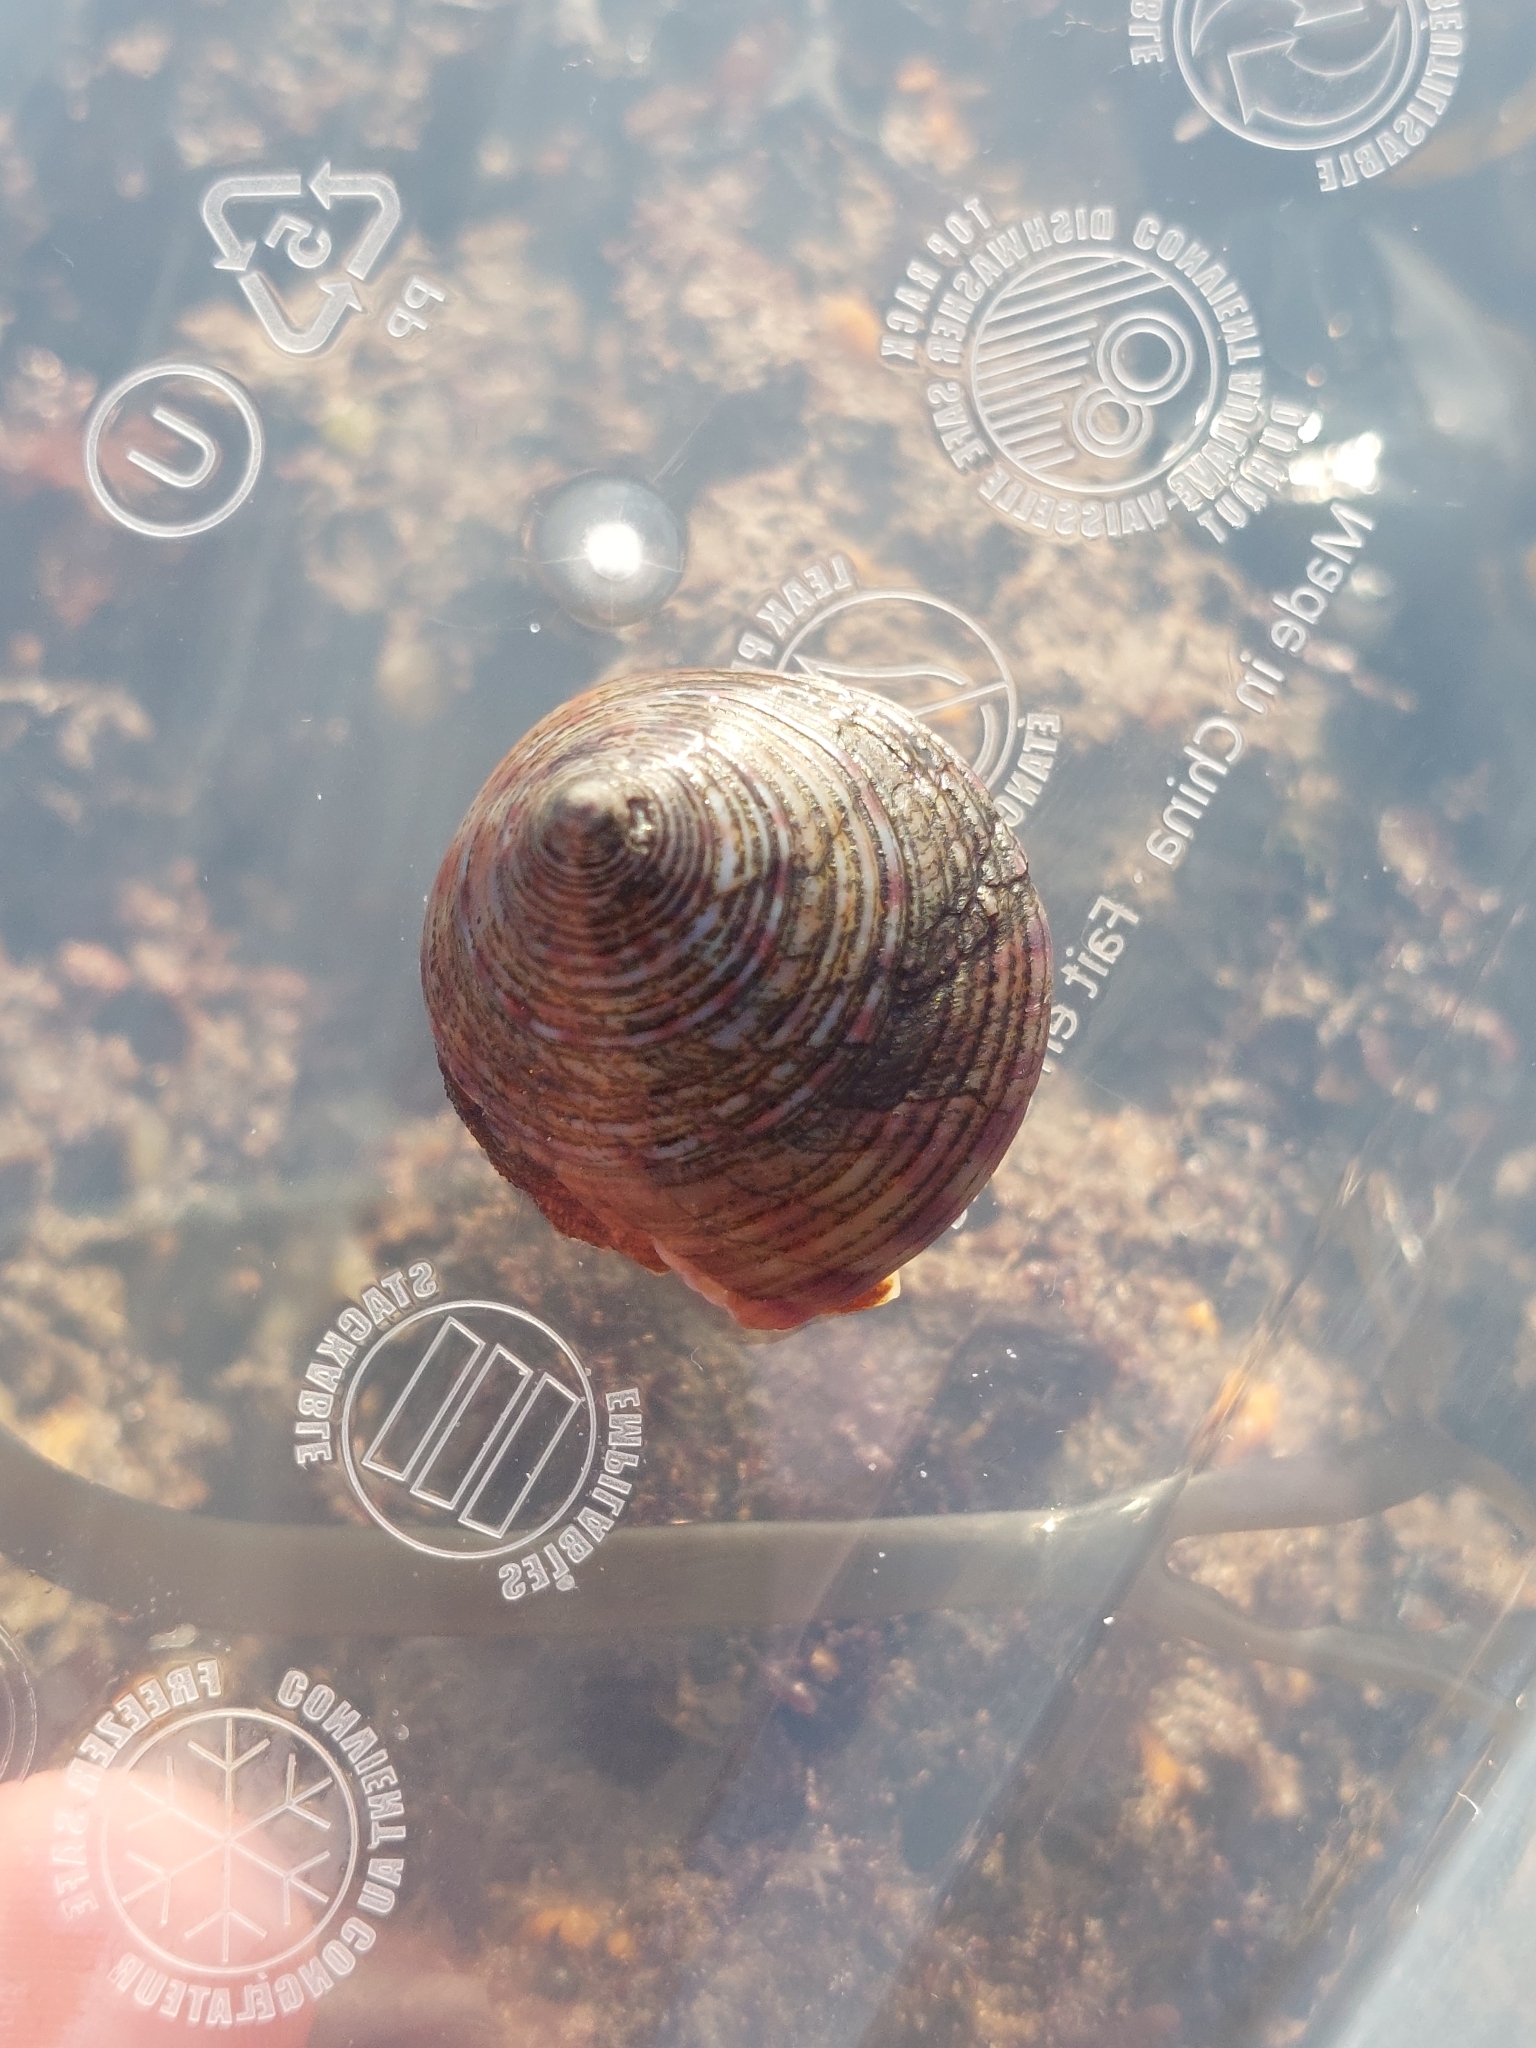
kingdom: Animalia
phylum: Mollusca
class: Gastropoda
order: Trochida
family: Calliostomatidae
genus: Calliostoma
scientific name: Calliostoma zizyphinum
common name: Painted top shell
